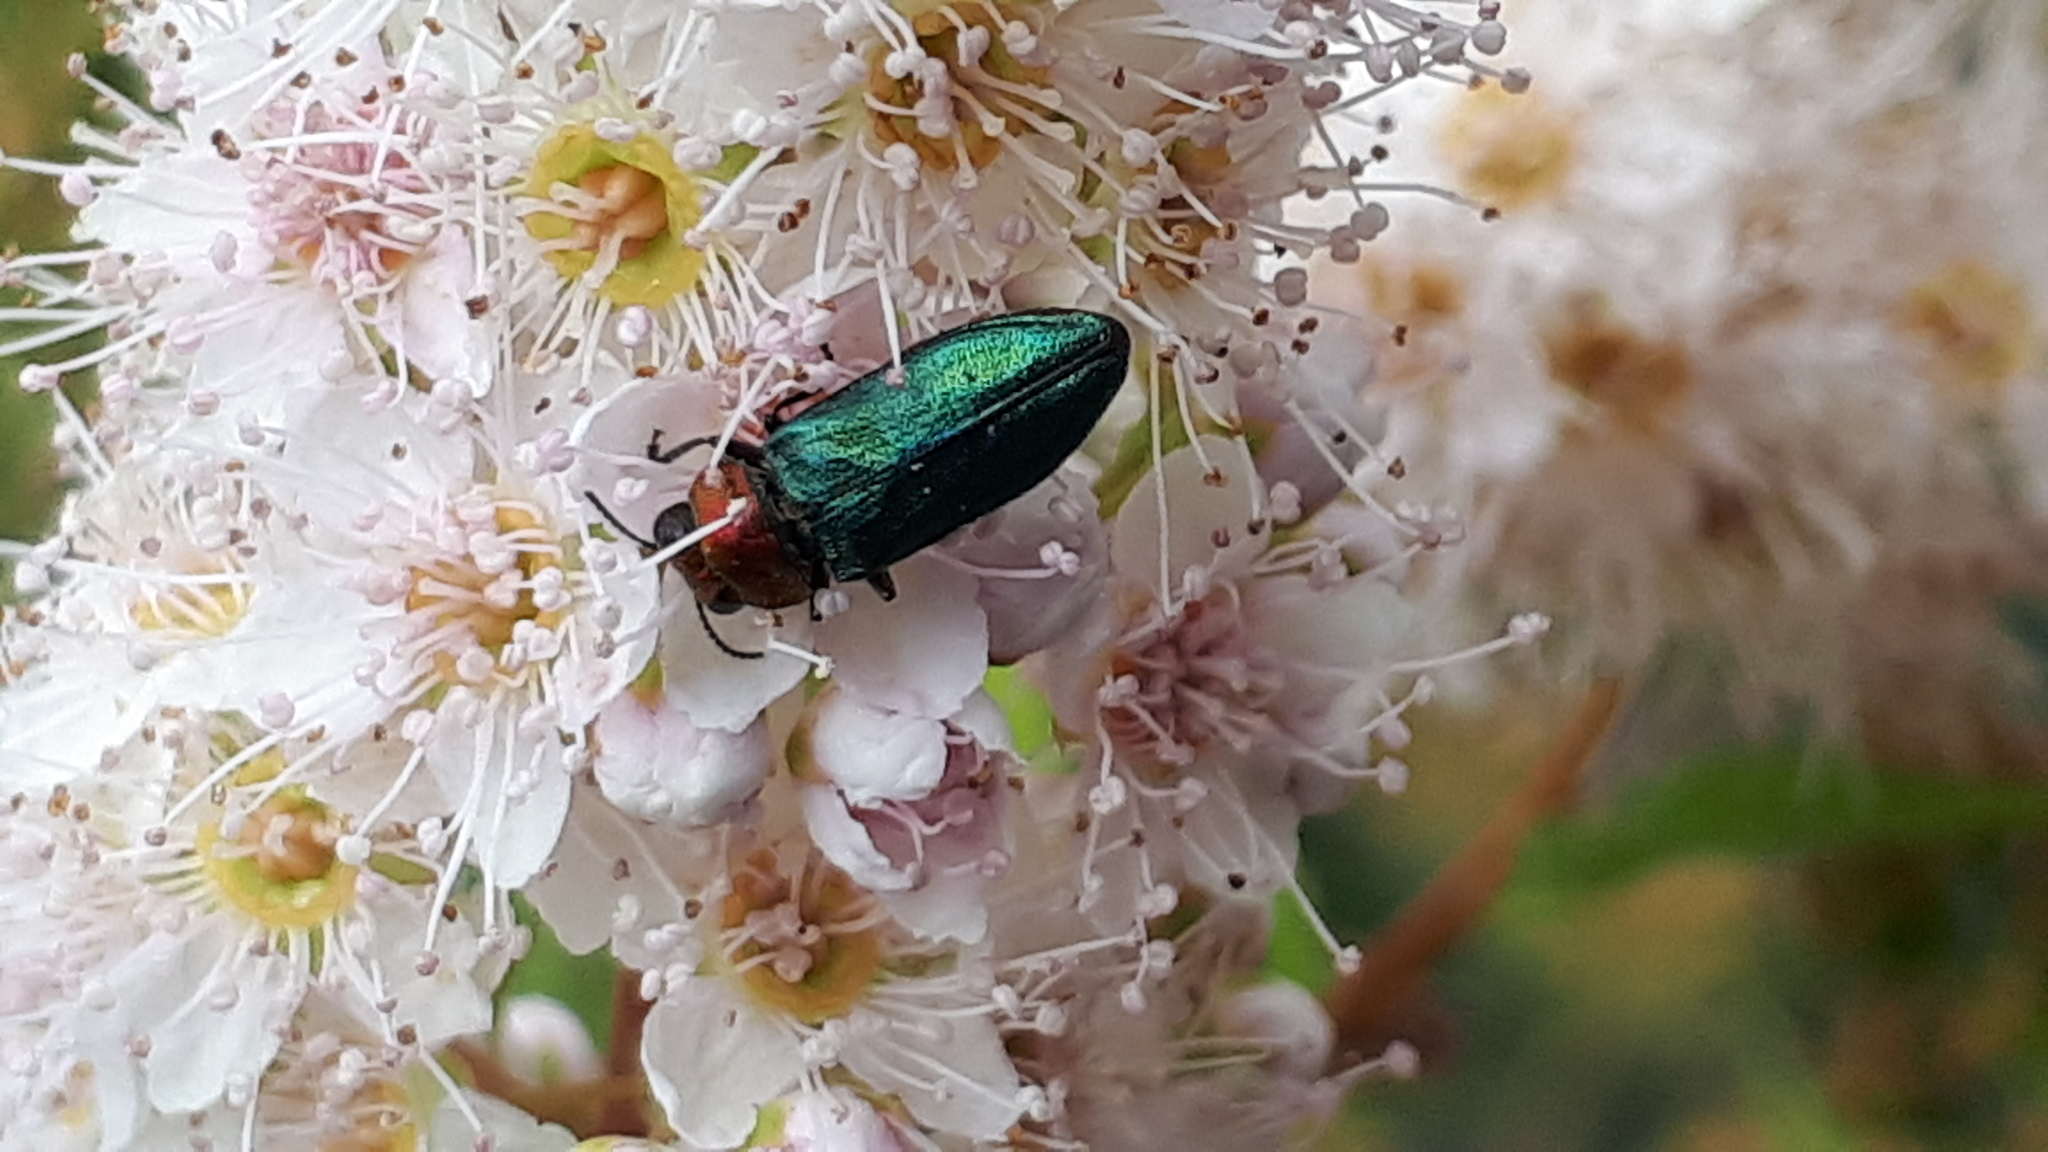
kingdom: Animalia
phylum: Arthropoda
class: Insecta
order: Coleoptera
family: Buprestidae
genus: Anthaxia
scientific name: Anthaxia nitidula
